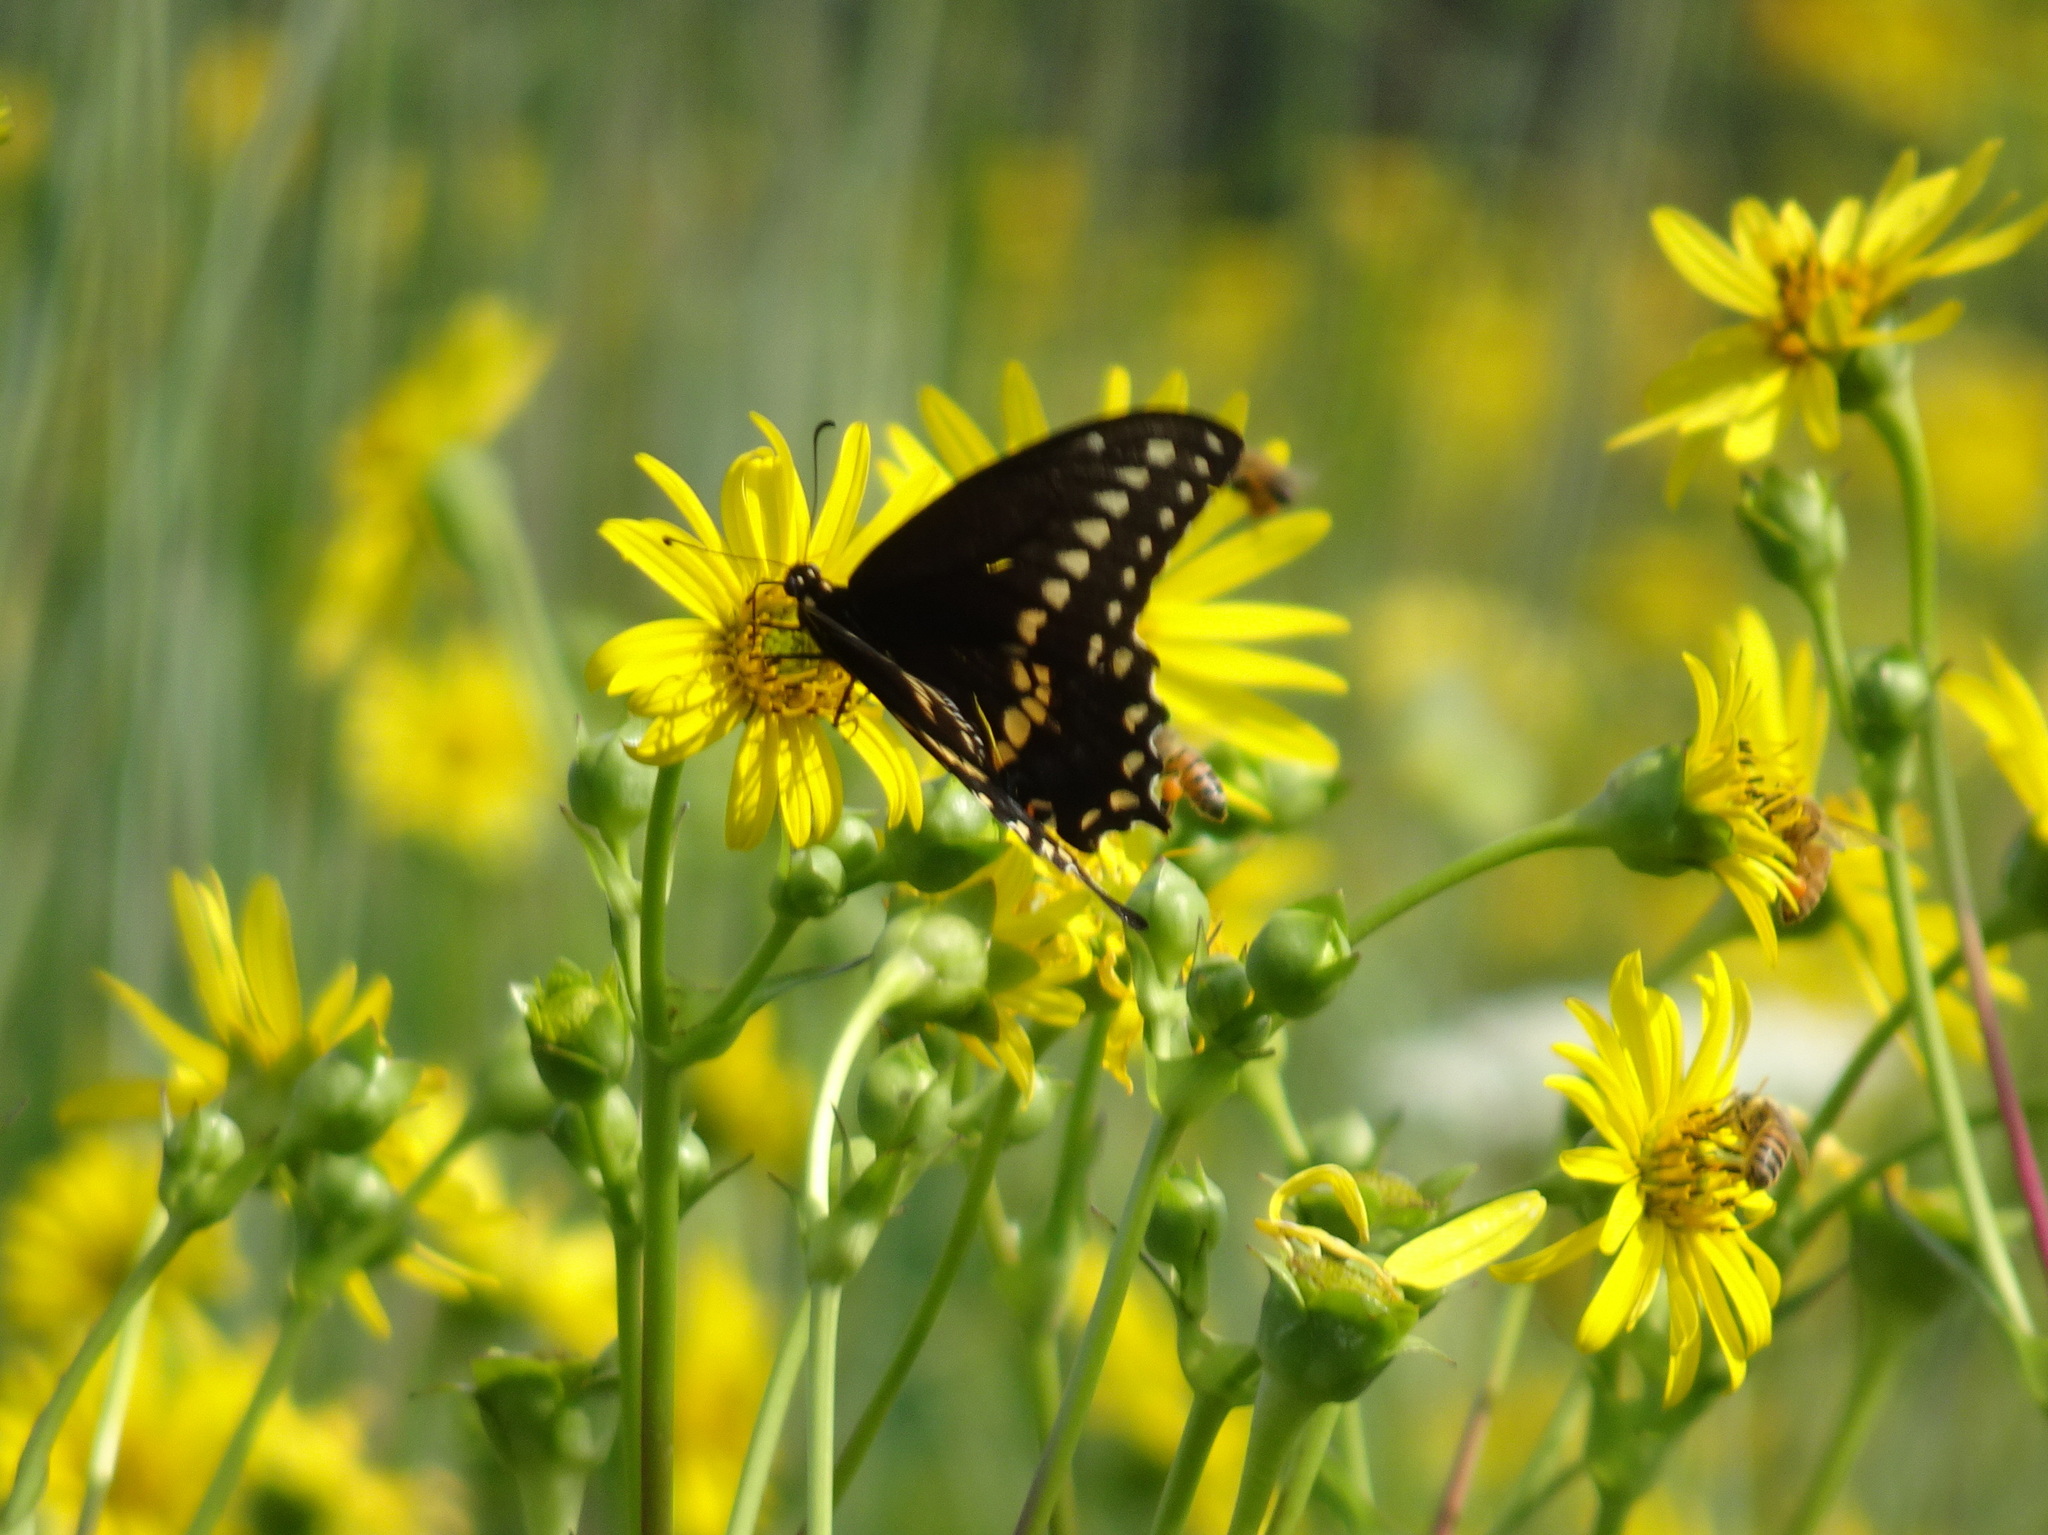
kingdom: Animalia
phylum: Arthropoda
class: Insecta
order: Lepidoptera
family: Papilionidae
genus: Papilio
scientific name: Papilio polyxenes
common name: Black swallowtail
